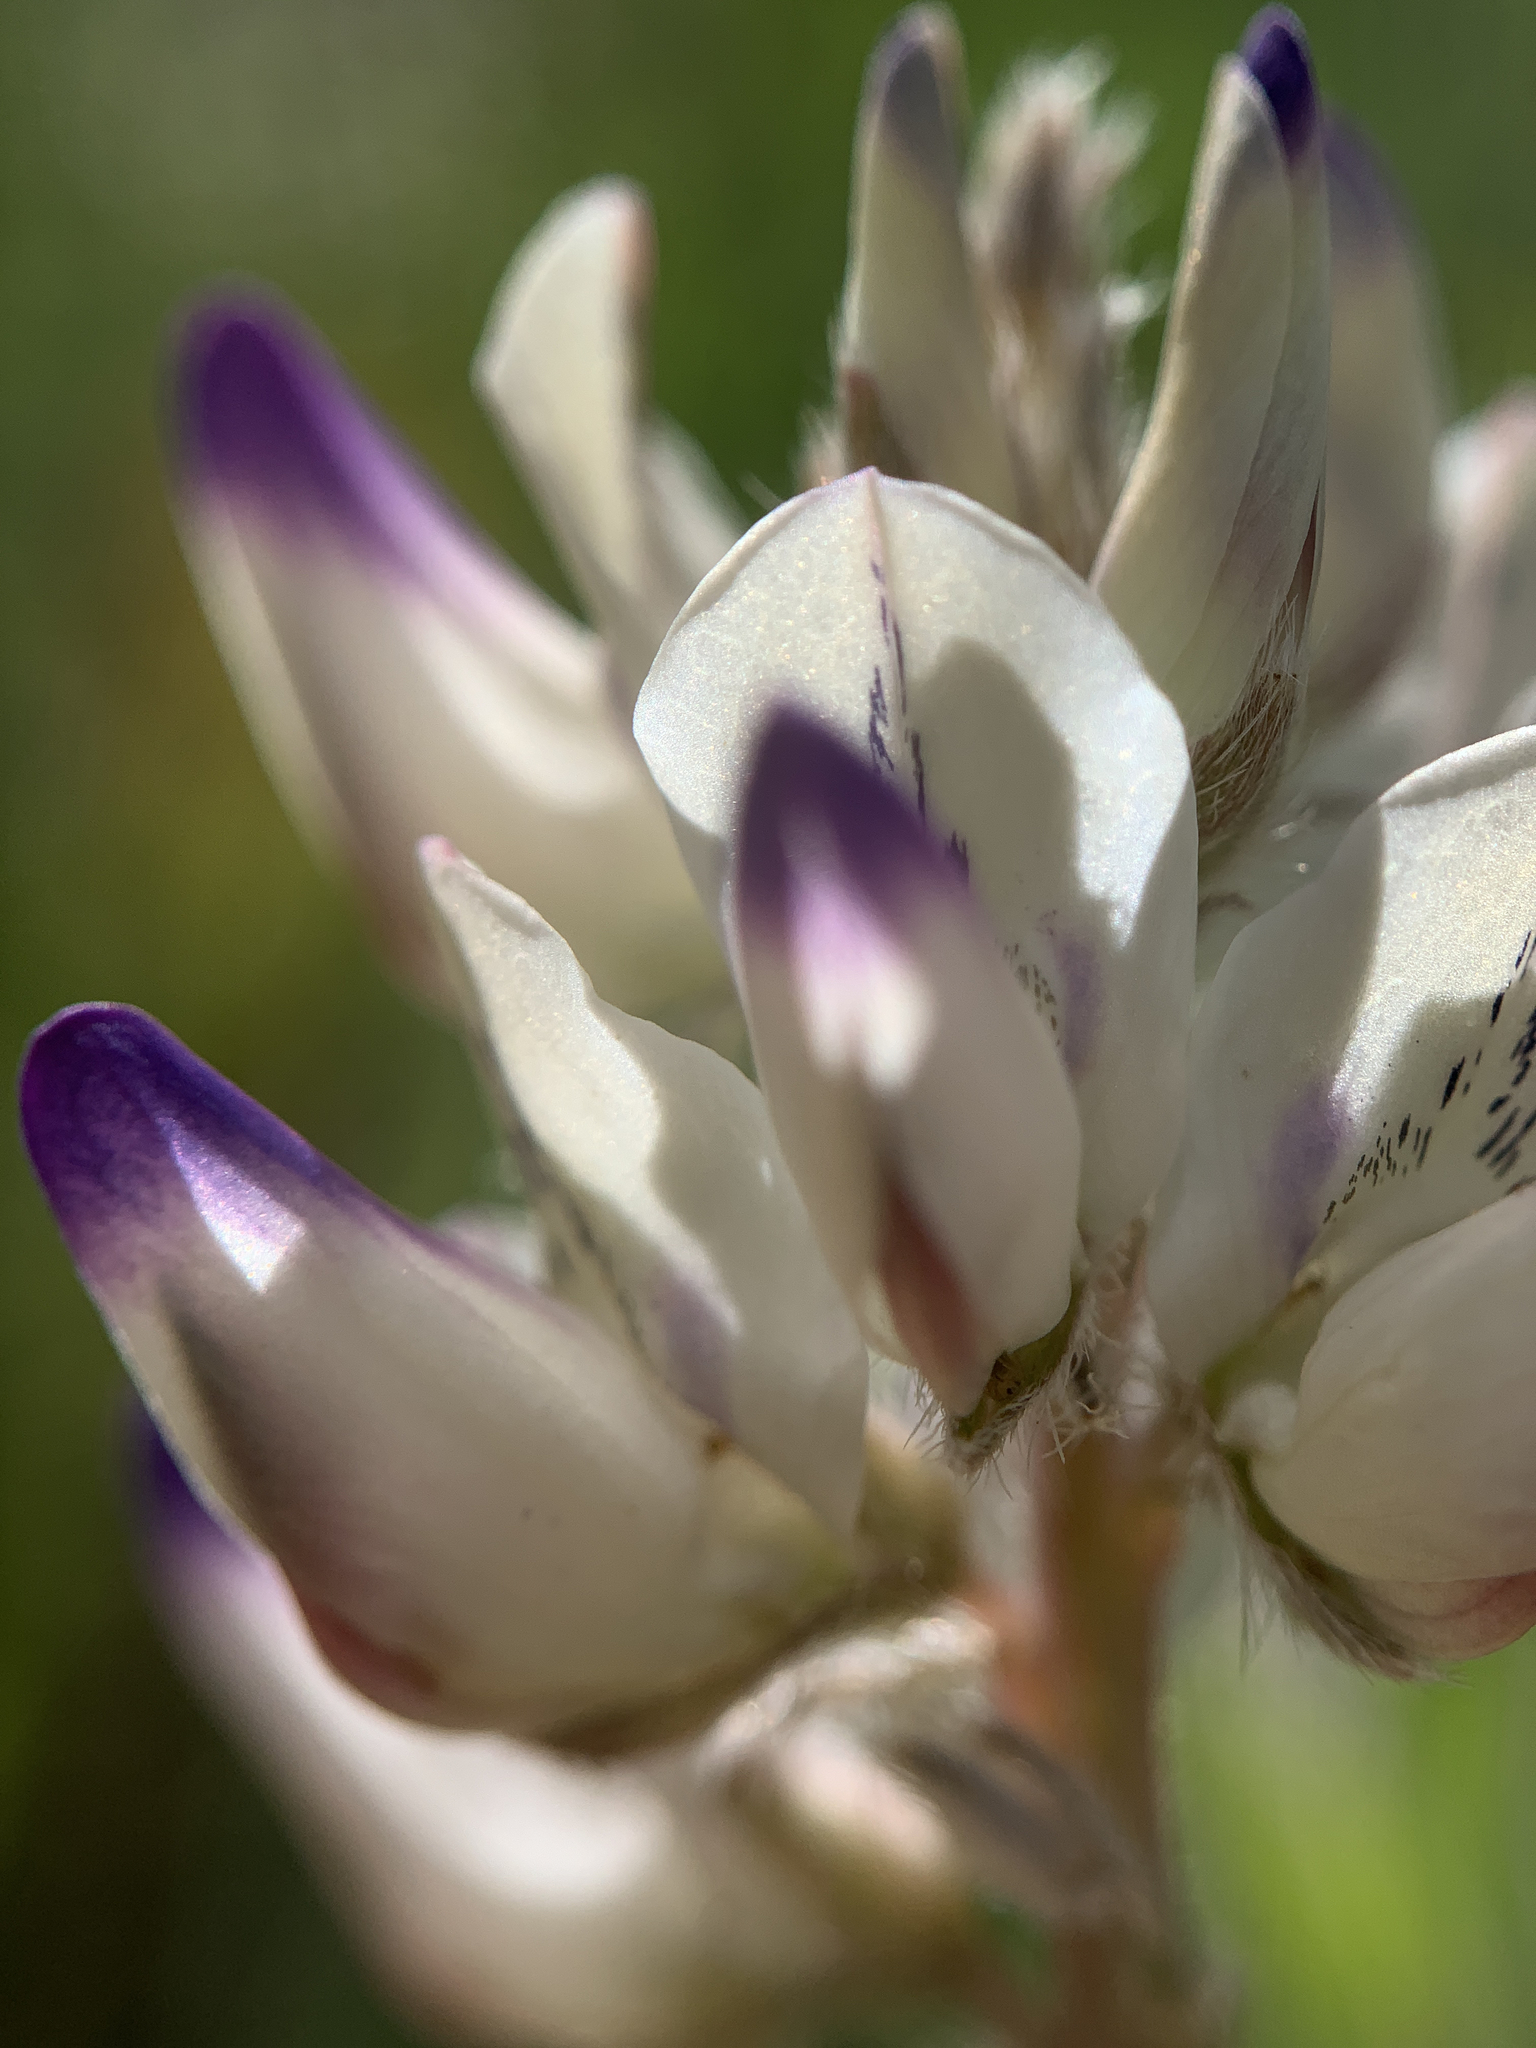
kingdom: Plantae
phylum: Tracheophyta
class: Magnoliopsida
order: Fabales
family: Fabaceae
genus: Lupinus
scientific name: Lupinus lepidus
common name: Prairie lupine
